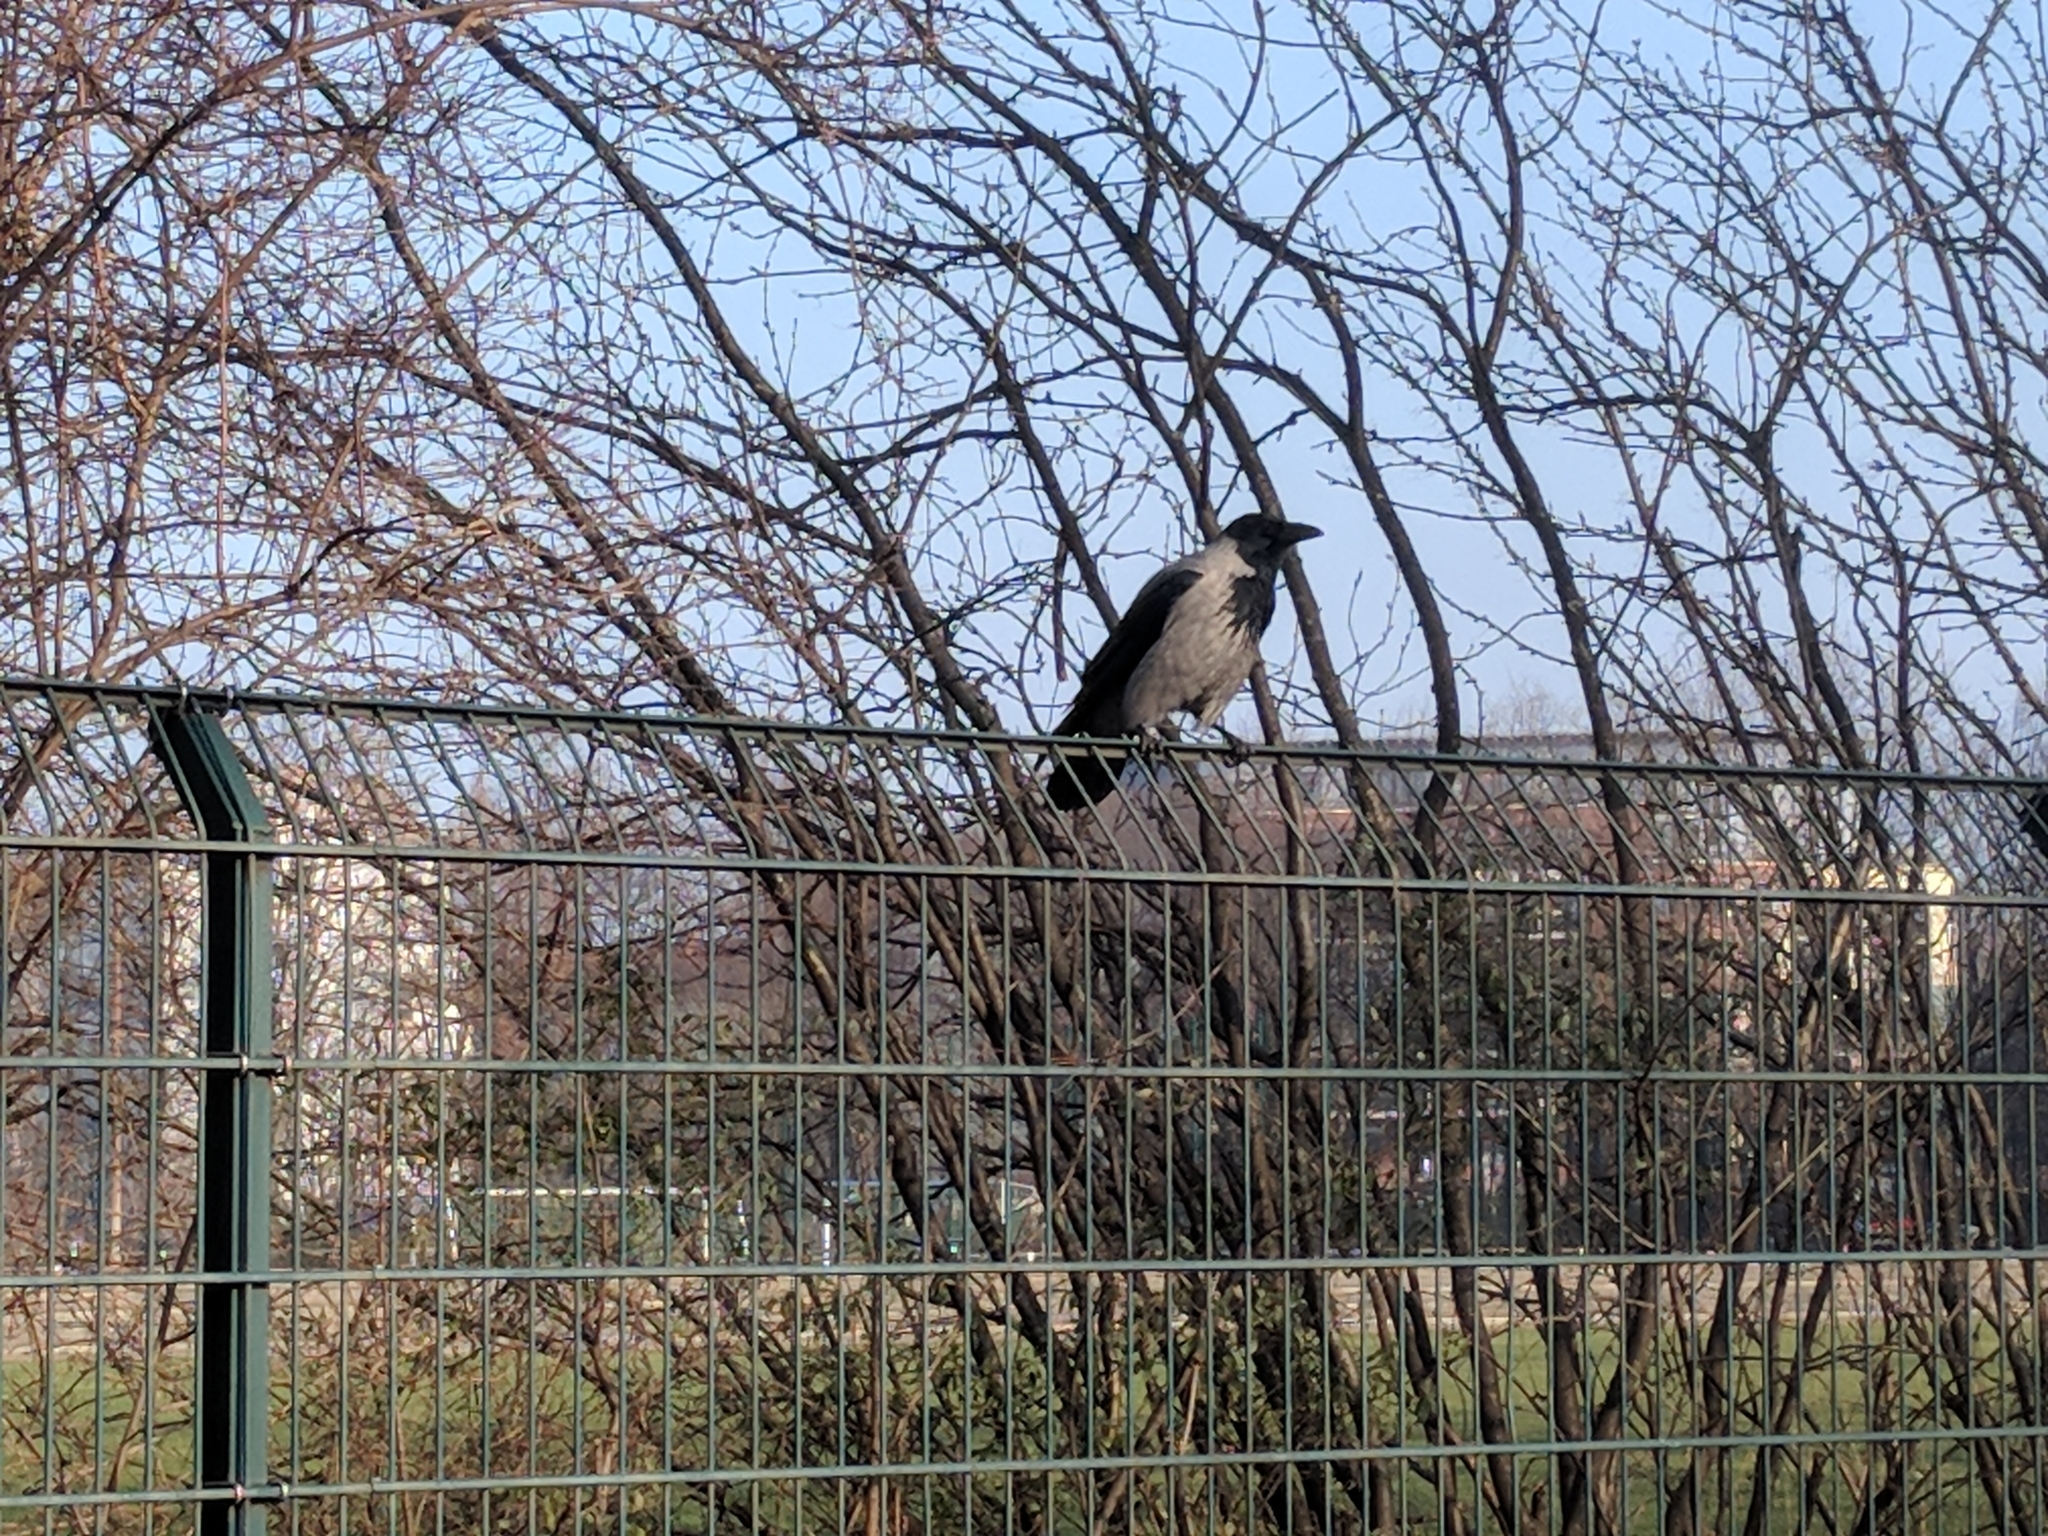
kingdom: Animalia
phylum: Chordata
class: Aves
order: Passeriformes
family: Corvidae
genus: Corvus
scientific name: Corvus cornix
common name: Hooded crow
